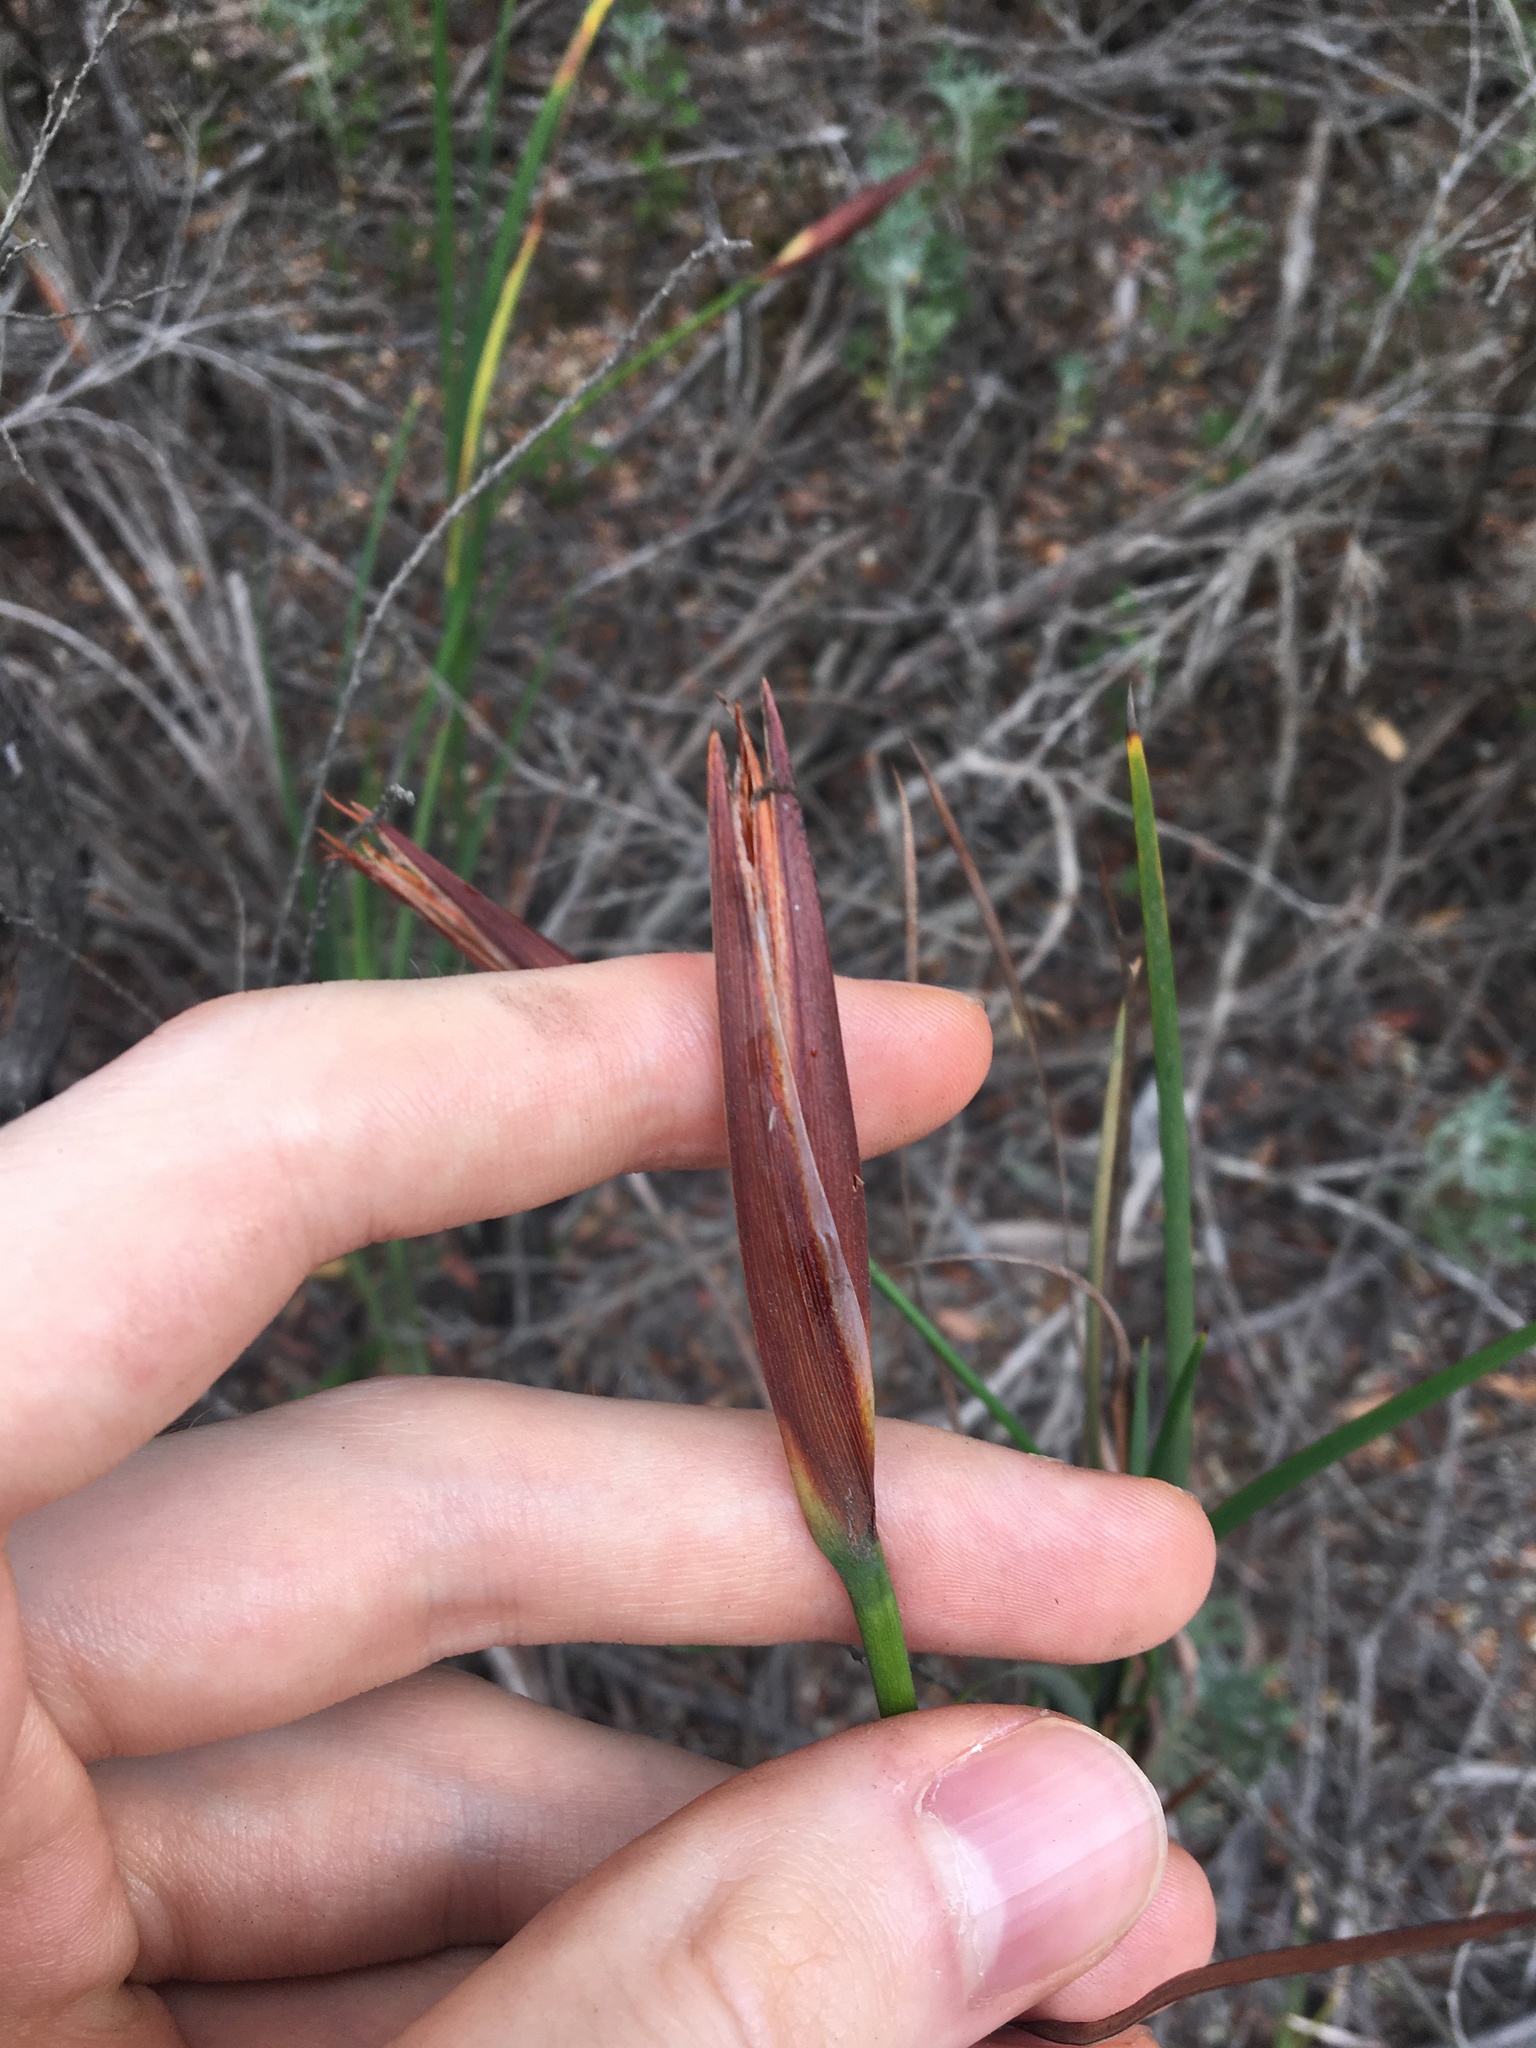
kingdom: Plantae
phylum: Tracheophyta
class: Liliopsida
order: Asparagales
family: Iridaceae
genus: Patersonia
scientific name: Patersonia glabrata
